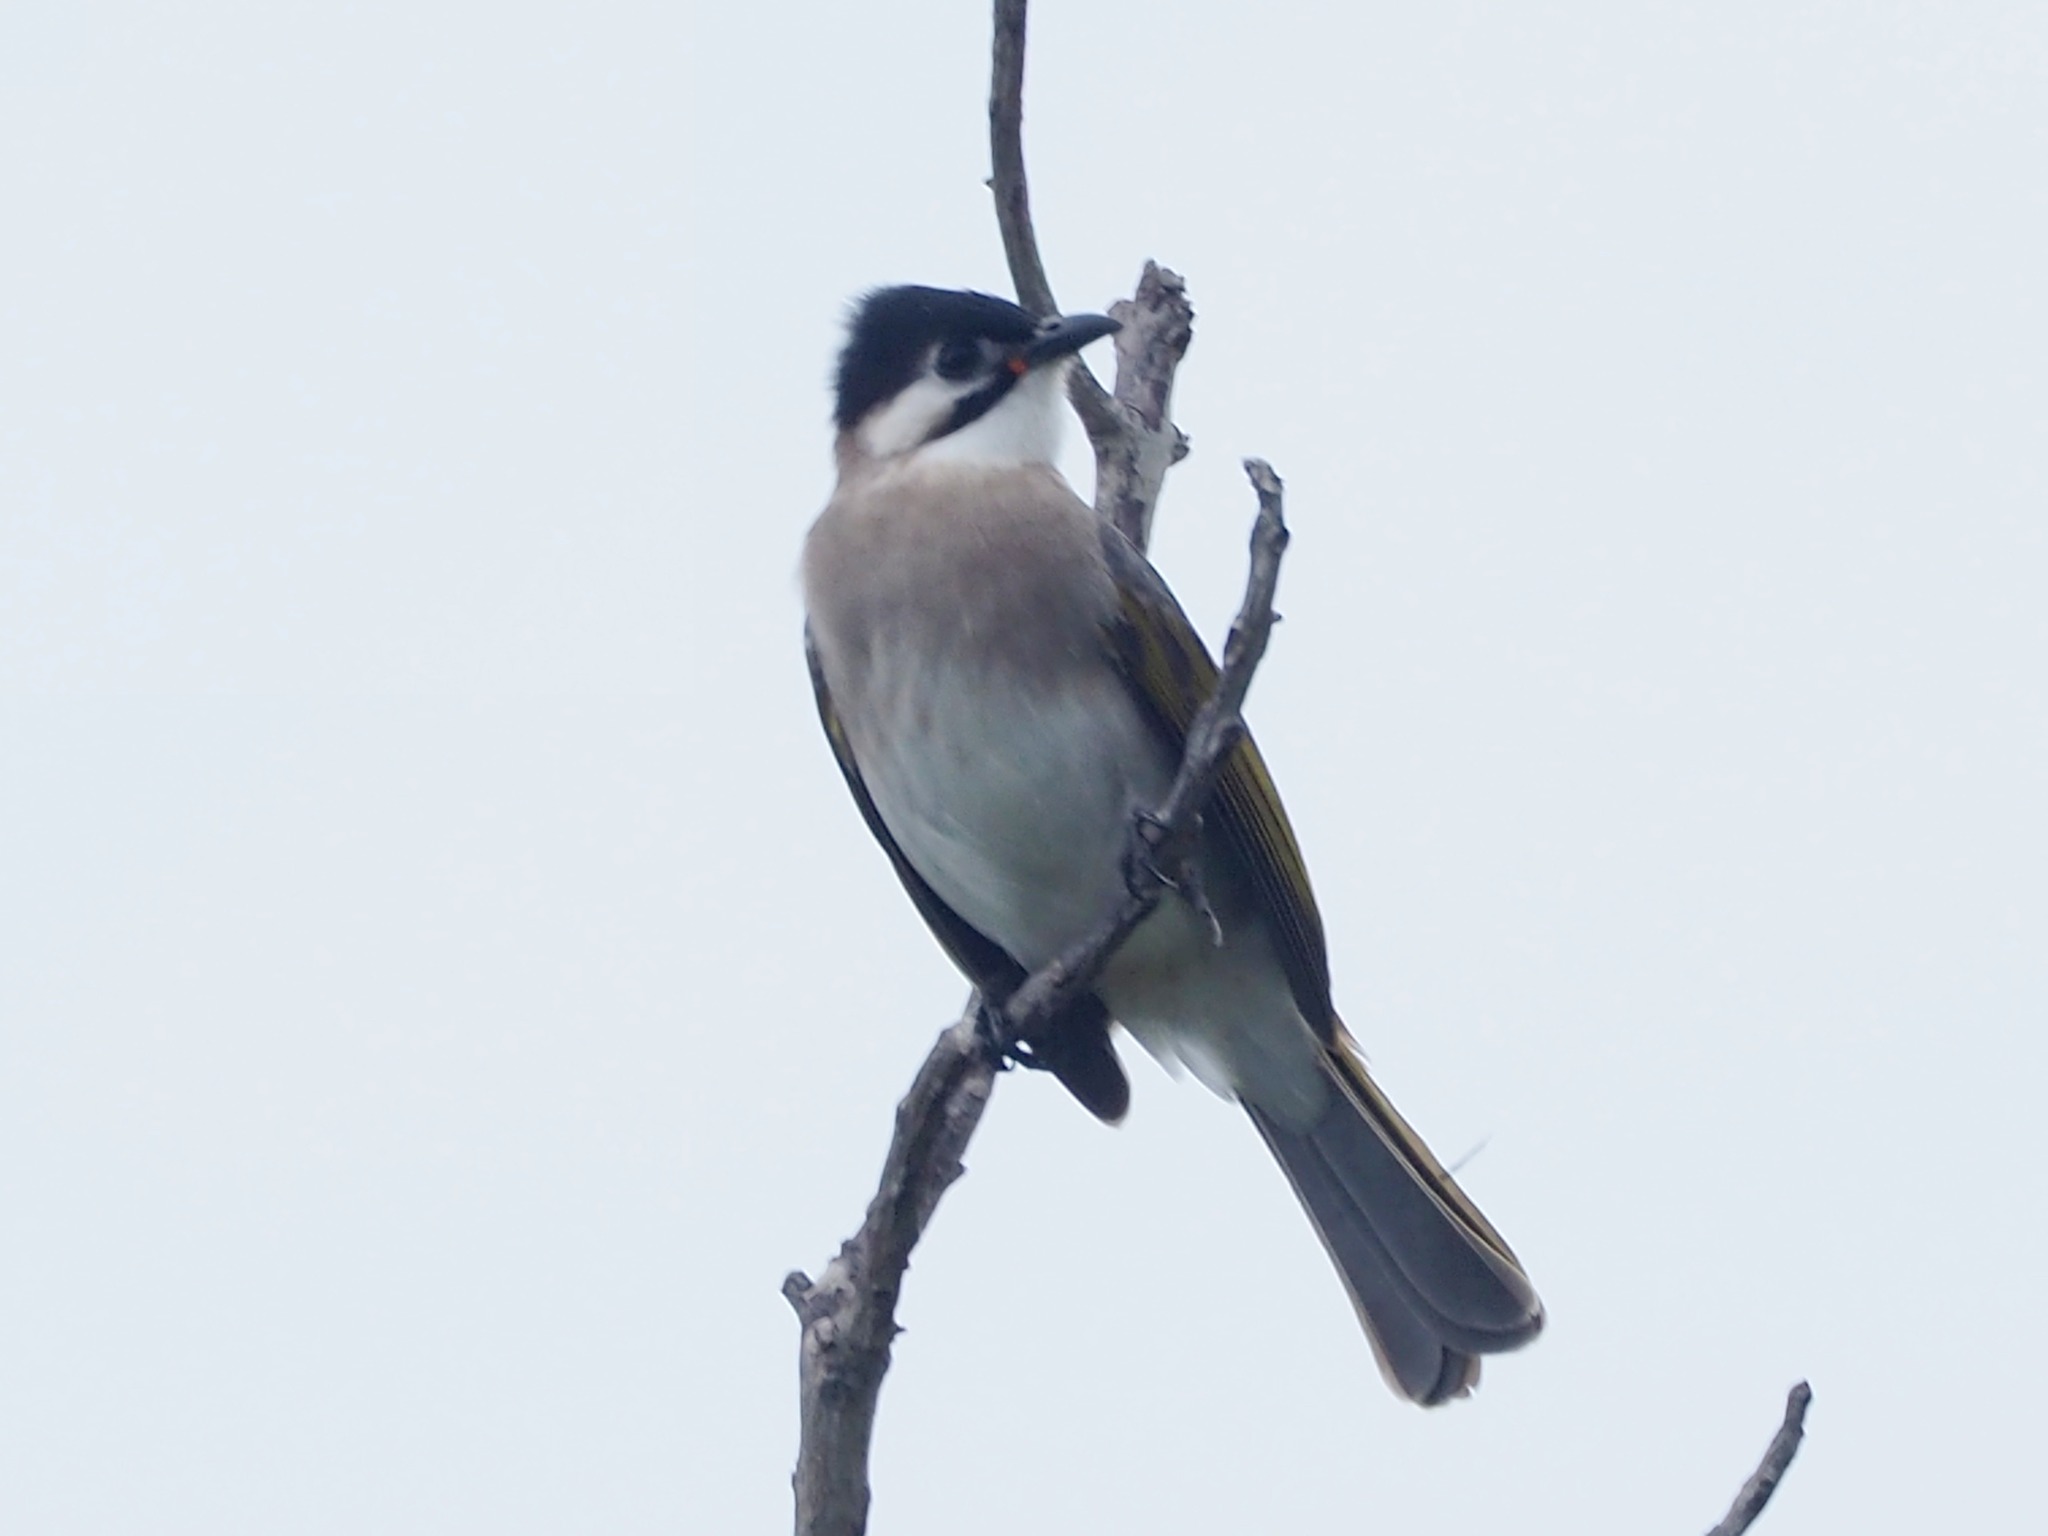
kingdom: Animalia
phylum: Chordata
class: Aves
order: Passeriformes
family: Pycnonotidae
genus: Pycnonotus
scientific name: Pycnonotus taivanus
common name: Styan's bulbul
